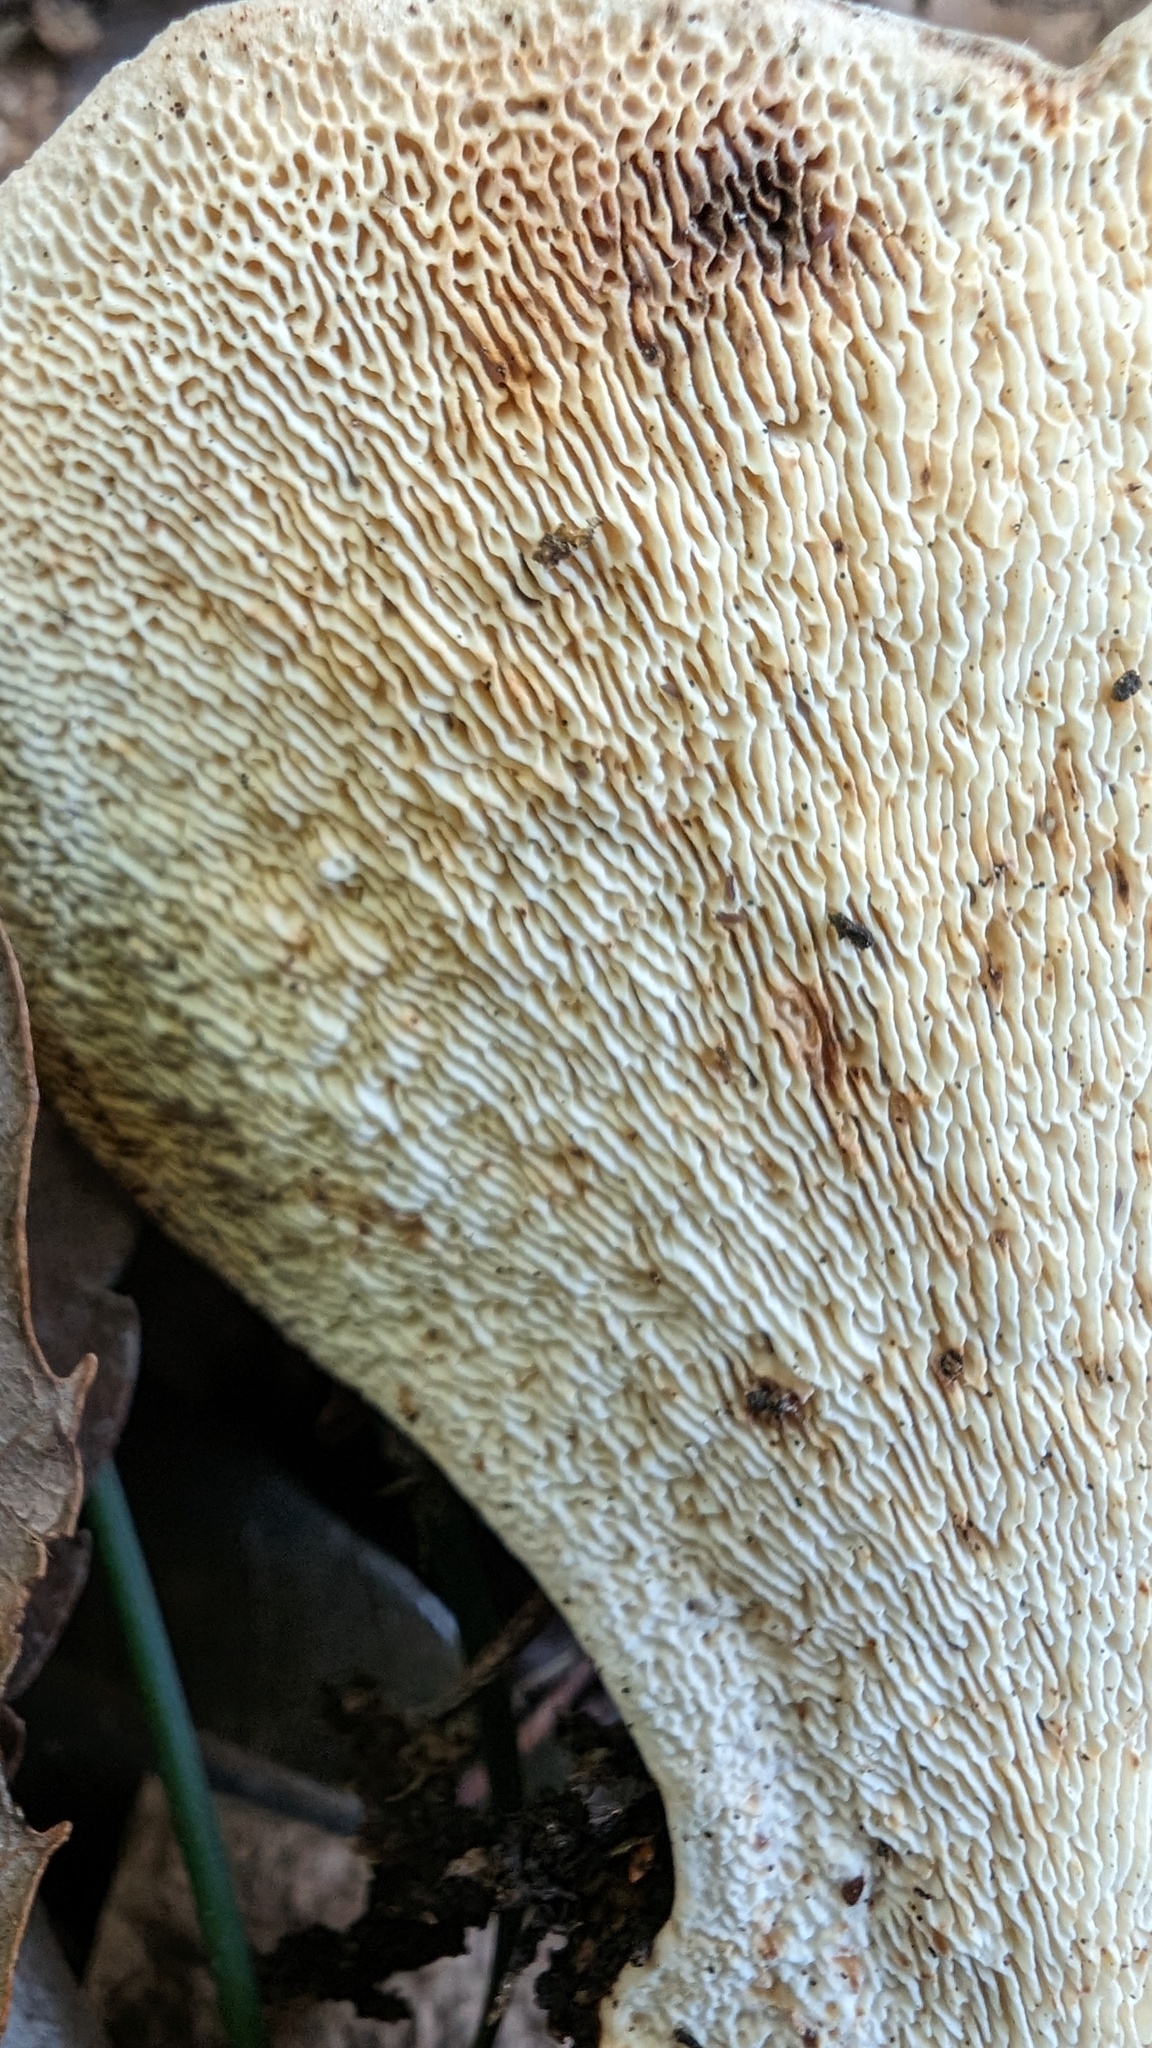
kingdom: Fungi
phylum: Basidiomycota
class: Agaricomycetes
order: Polyporales
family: Polyporaceae
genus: Trametes
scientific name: Trametes elegans
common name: White maze polypore
